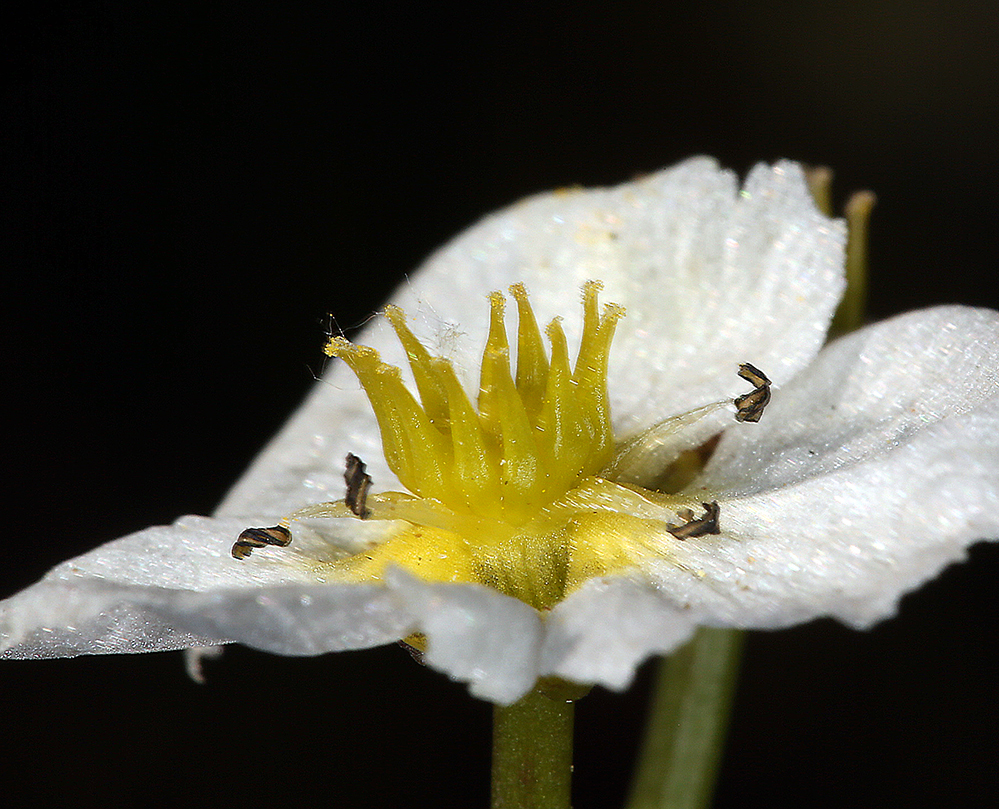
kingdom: Plantae
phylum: Tracheophyta
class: Liliopsida
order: Alismatales
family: Alismataceae
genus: Damasonium
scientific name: Damasonium californicum
